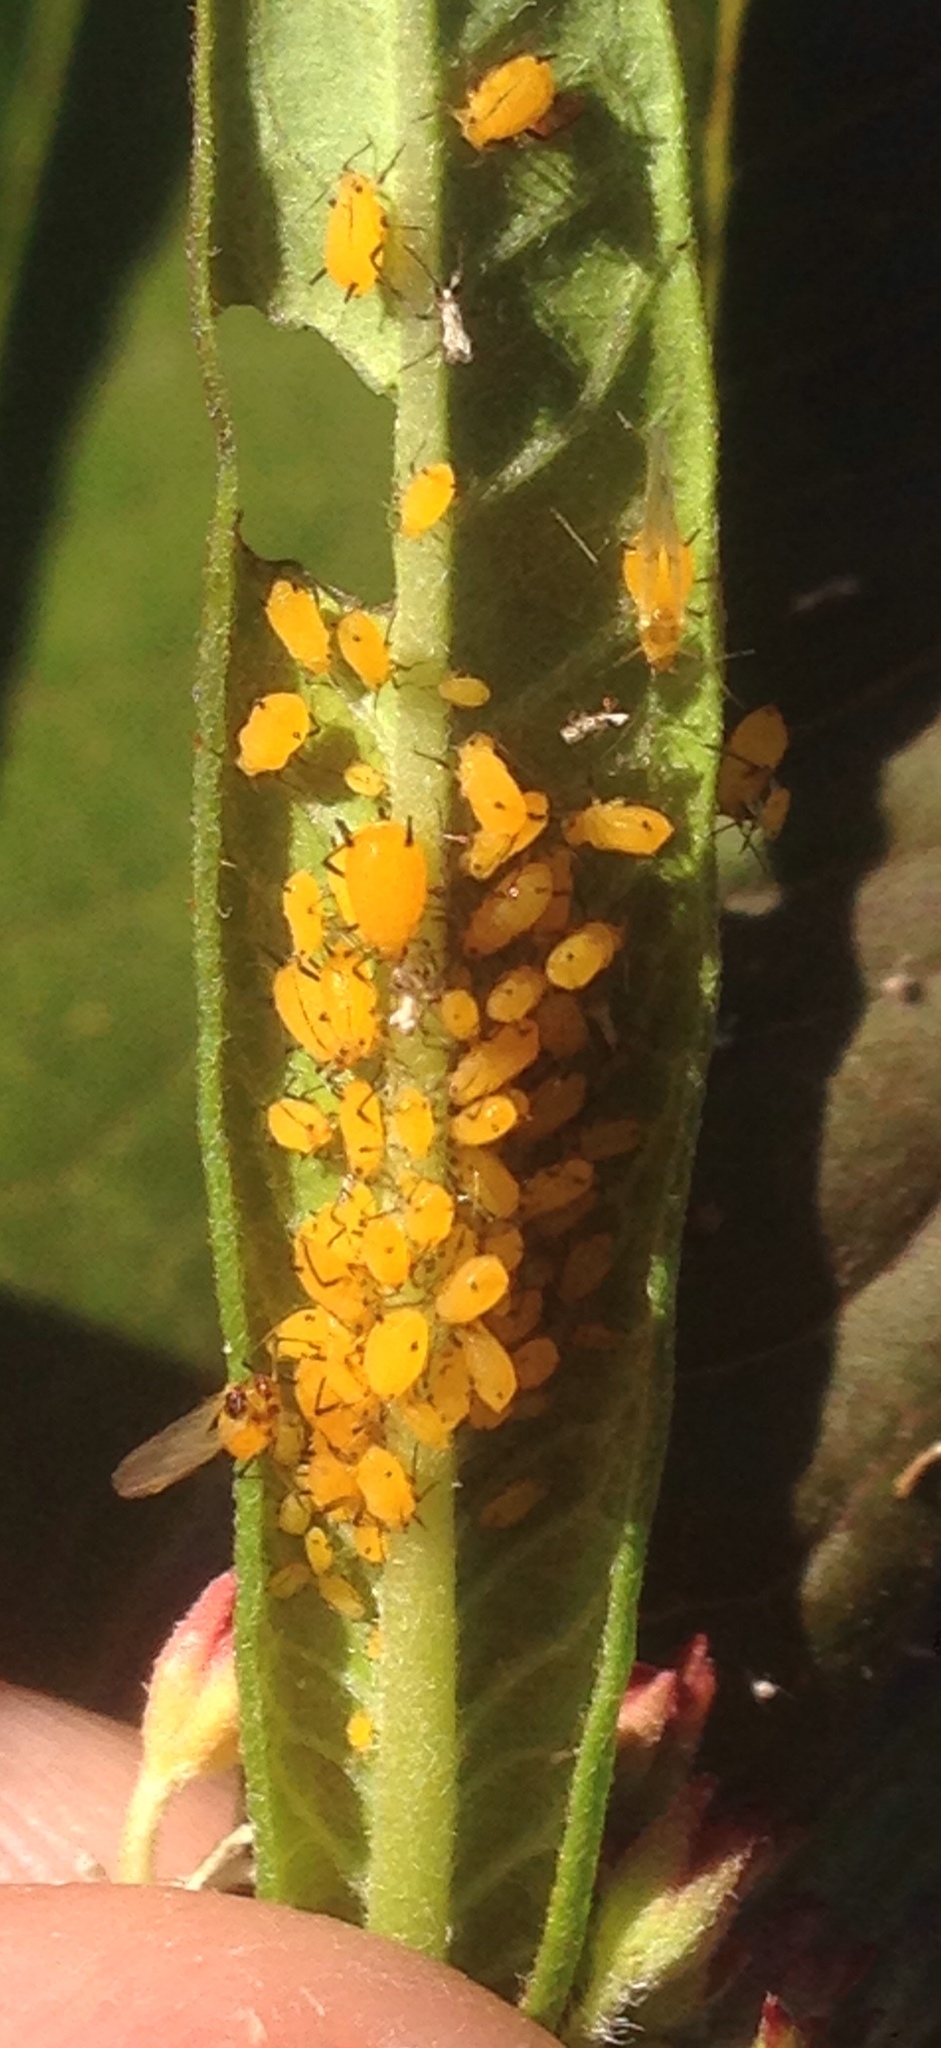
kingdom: Animalia
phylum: Arthropoda
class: Insecta
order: Hemiptera
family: Aphididae
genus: Aphis
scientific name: Aphis nerii
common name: Oleander aphid
